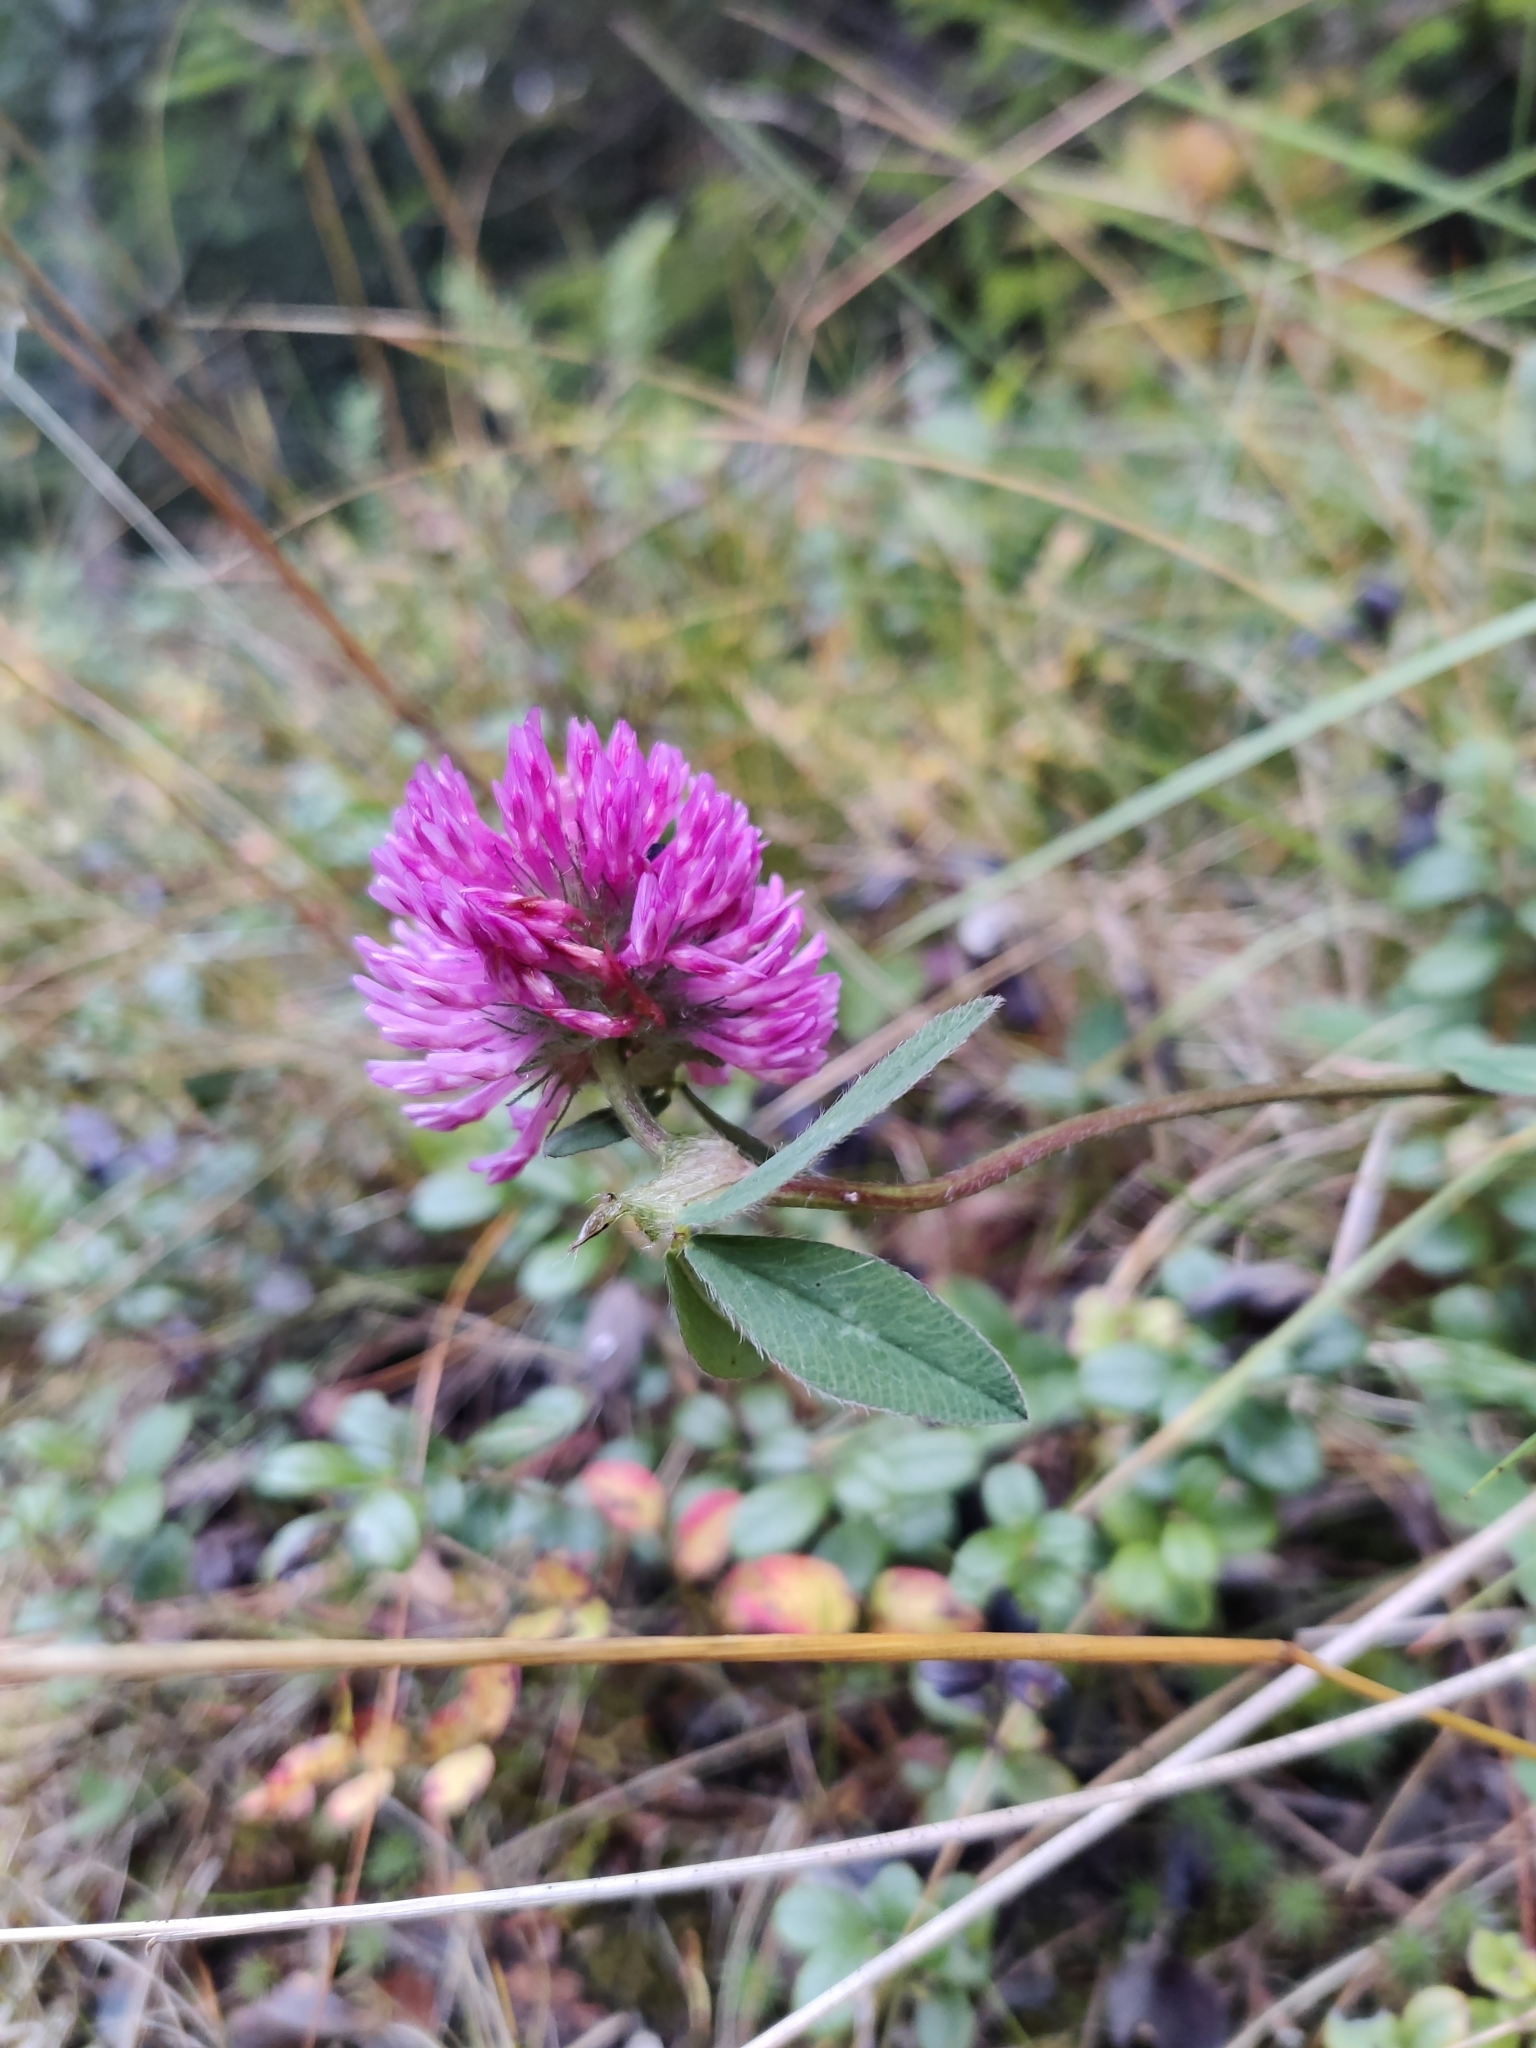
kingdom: Plantae
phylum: Tracheophyta
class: Magnoliopsida
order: Fabales
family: Fabaceae
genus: Trifolium
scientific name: Trifolium pratense
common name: Red clover
